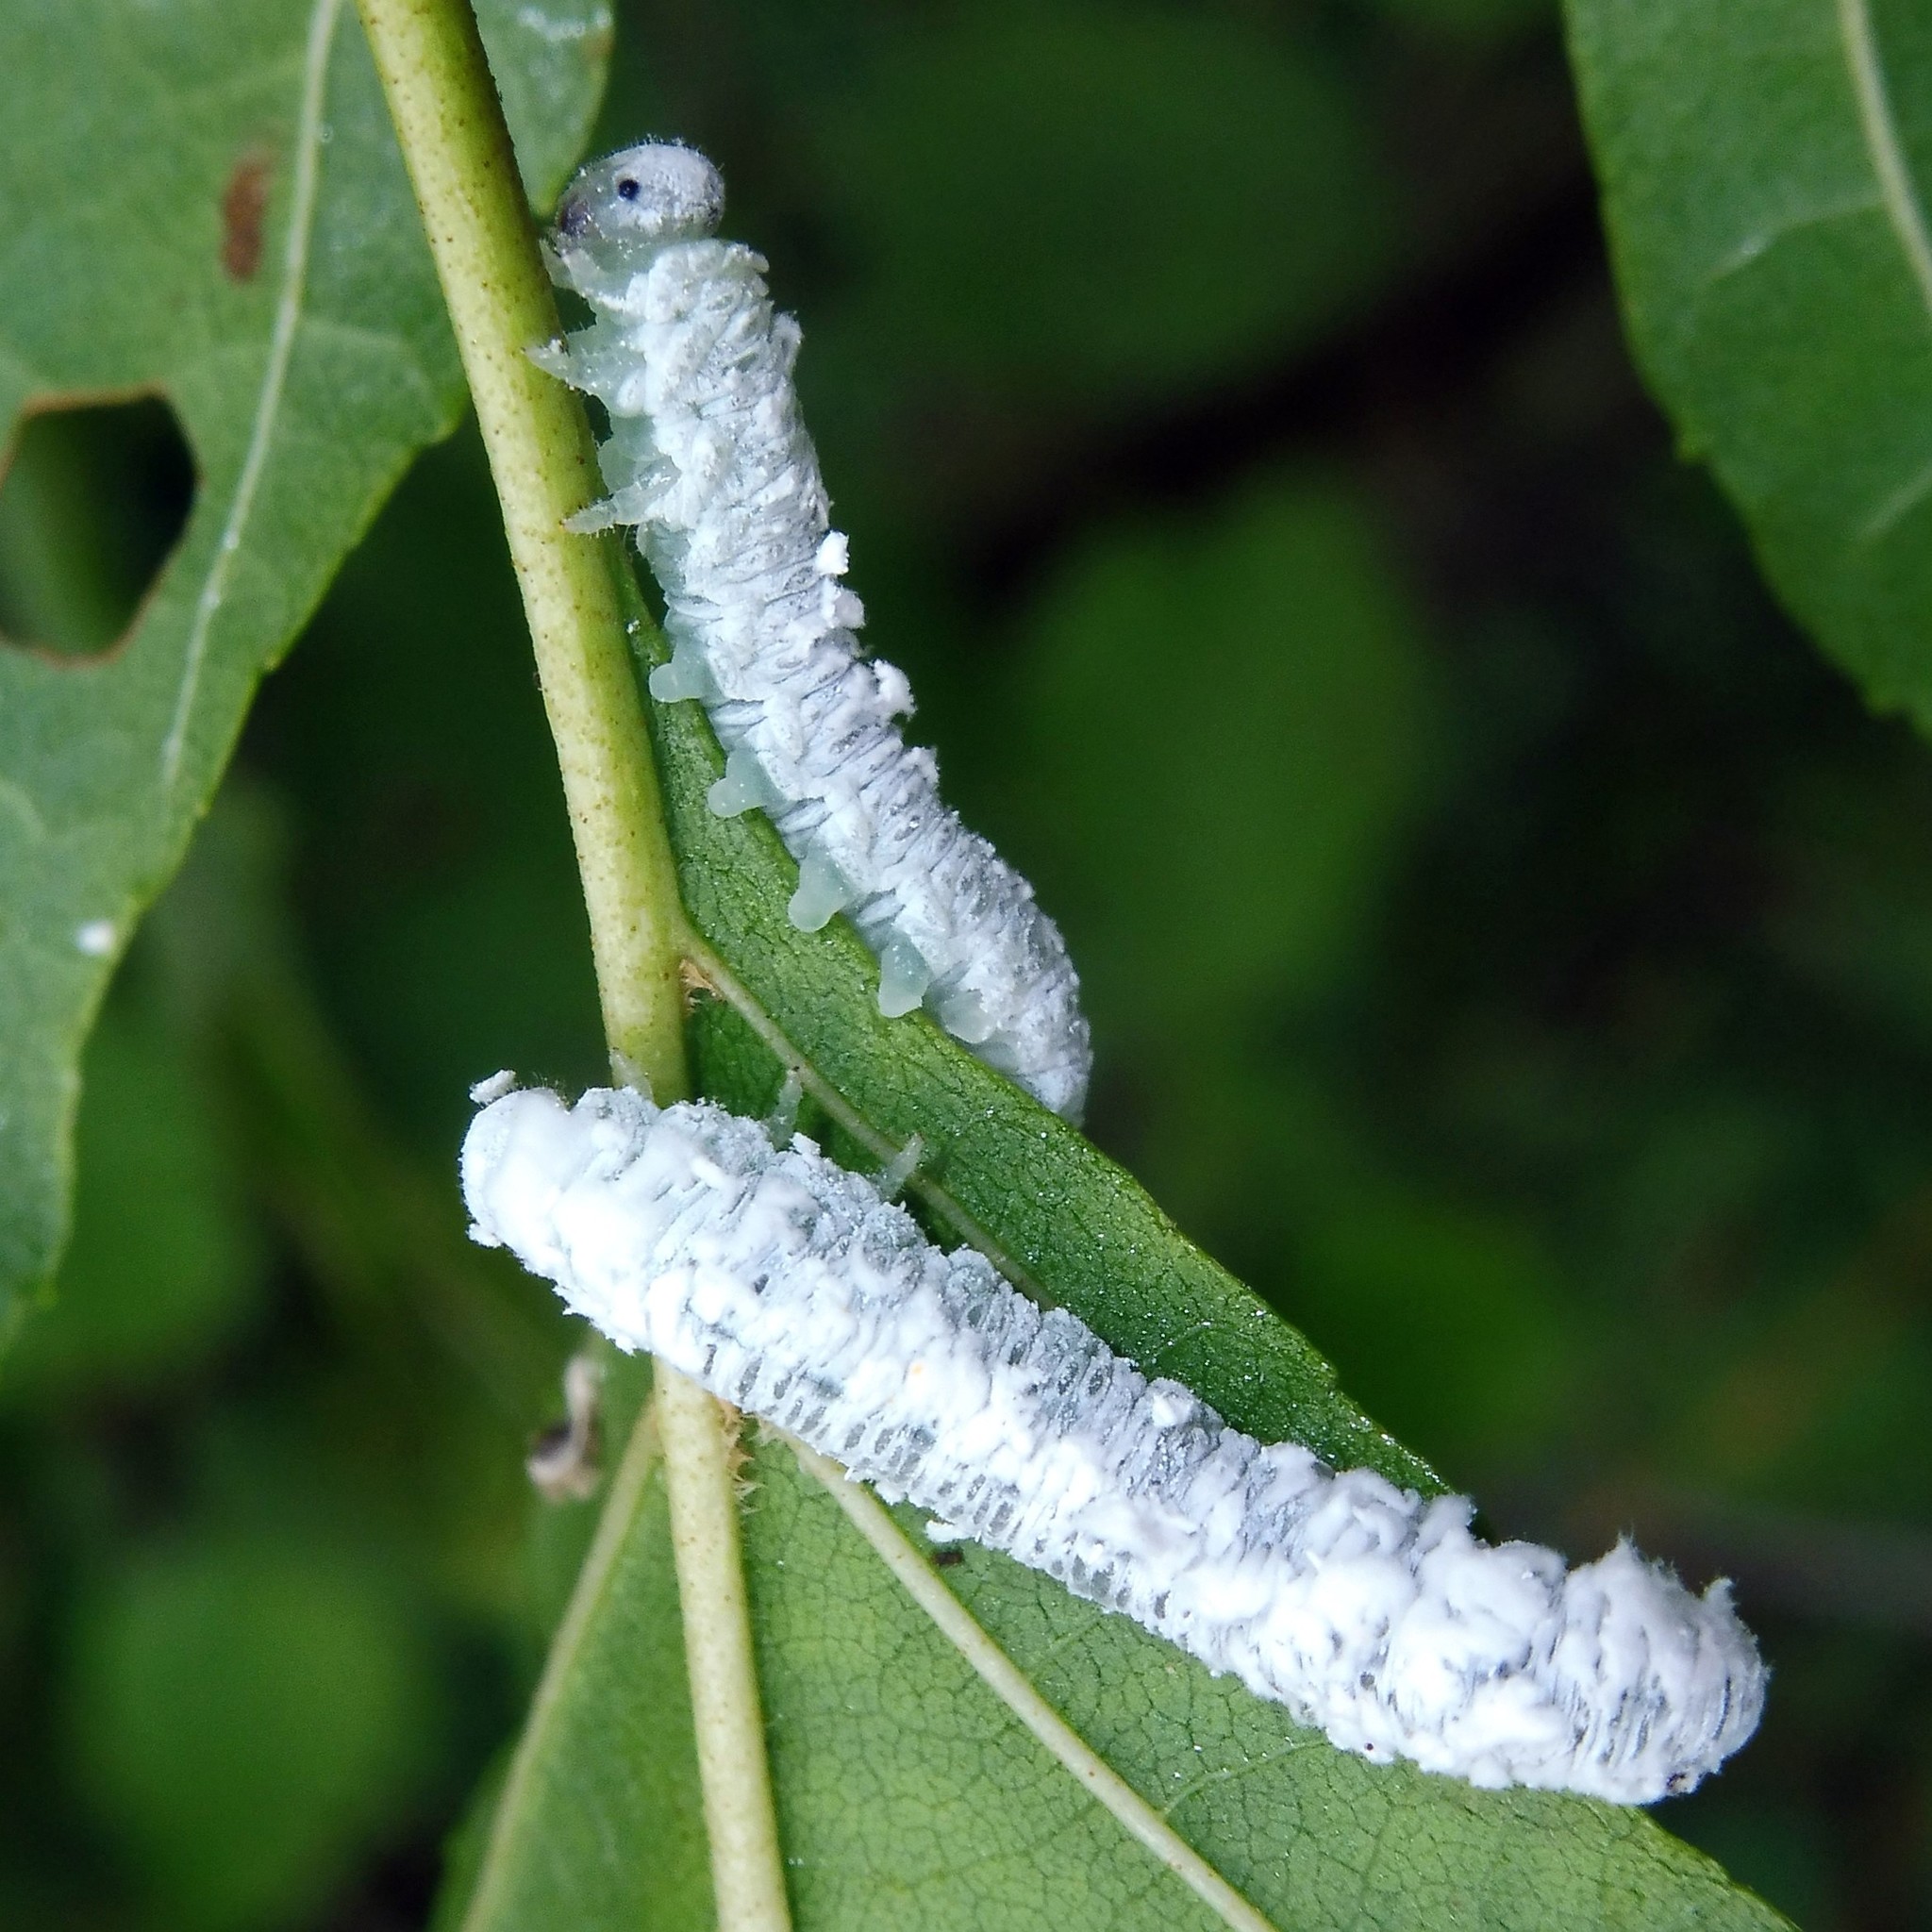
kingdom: Animalia
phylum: Arthropoda
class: Insecta
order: Hymenoptera
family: Tenthredinidae
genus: Eriocampa
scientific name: Eriocampa ovata
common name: Alder wooly sawfly
